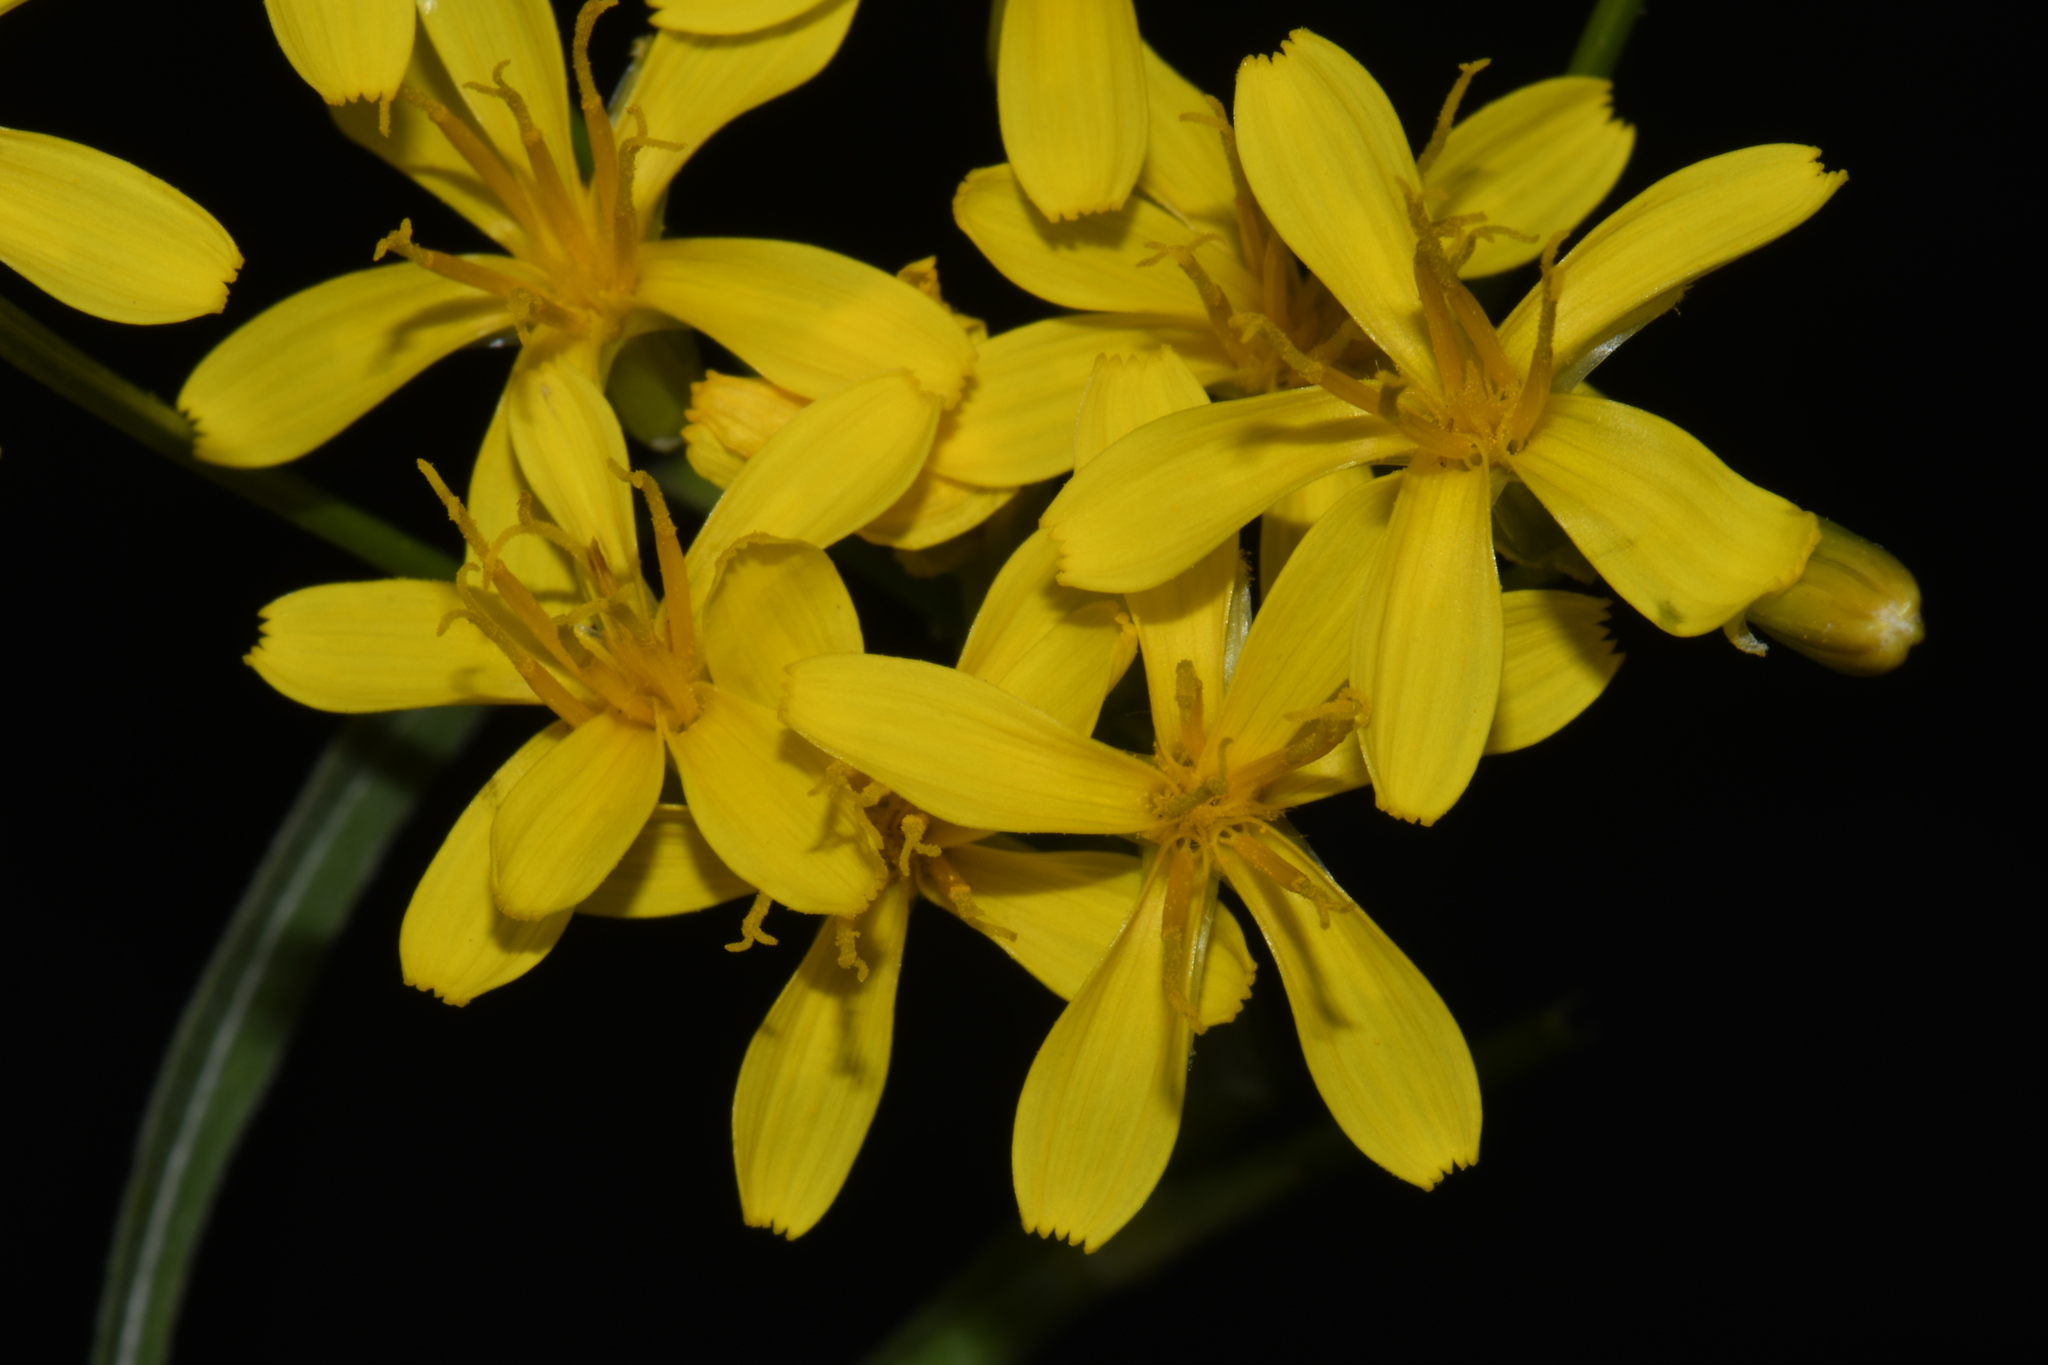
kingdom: Plantae
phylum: Tracheophyta
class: Magnoliopsida
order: Asterales
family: Asteraceae
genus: Crepis
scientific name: Crepis acuminata
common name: Longleaf hawk's-beard
